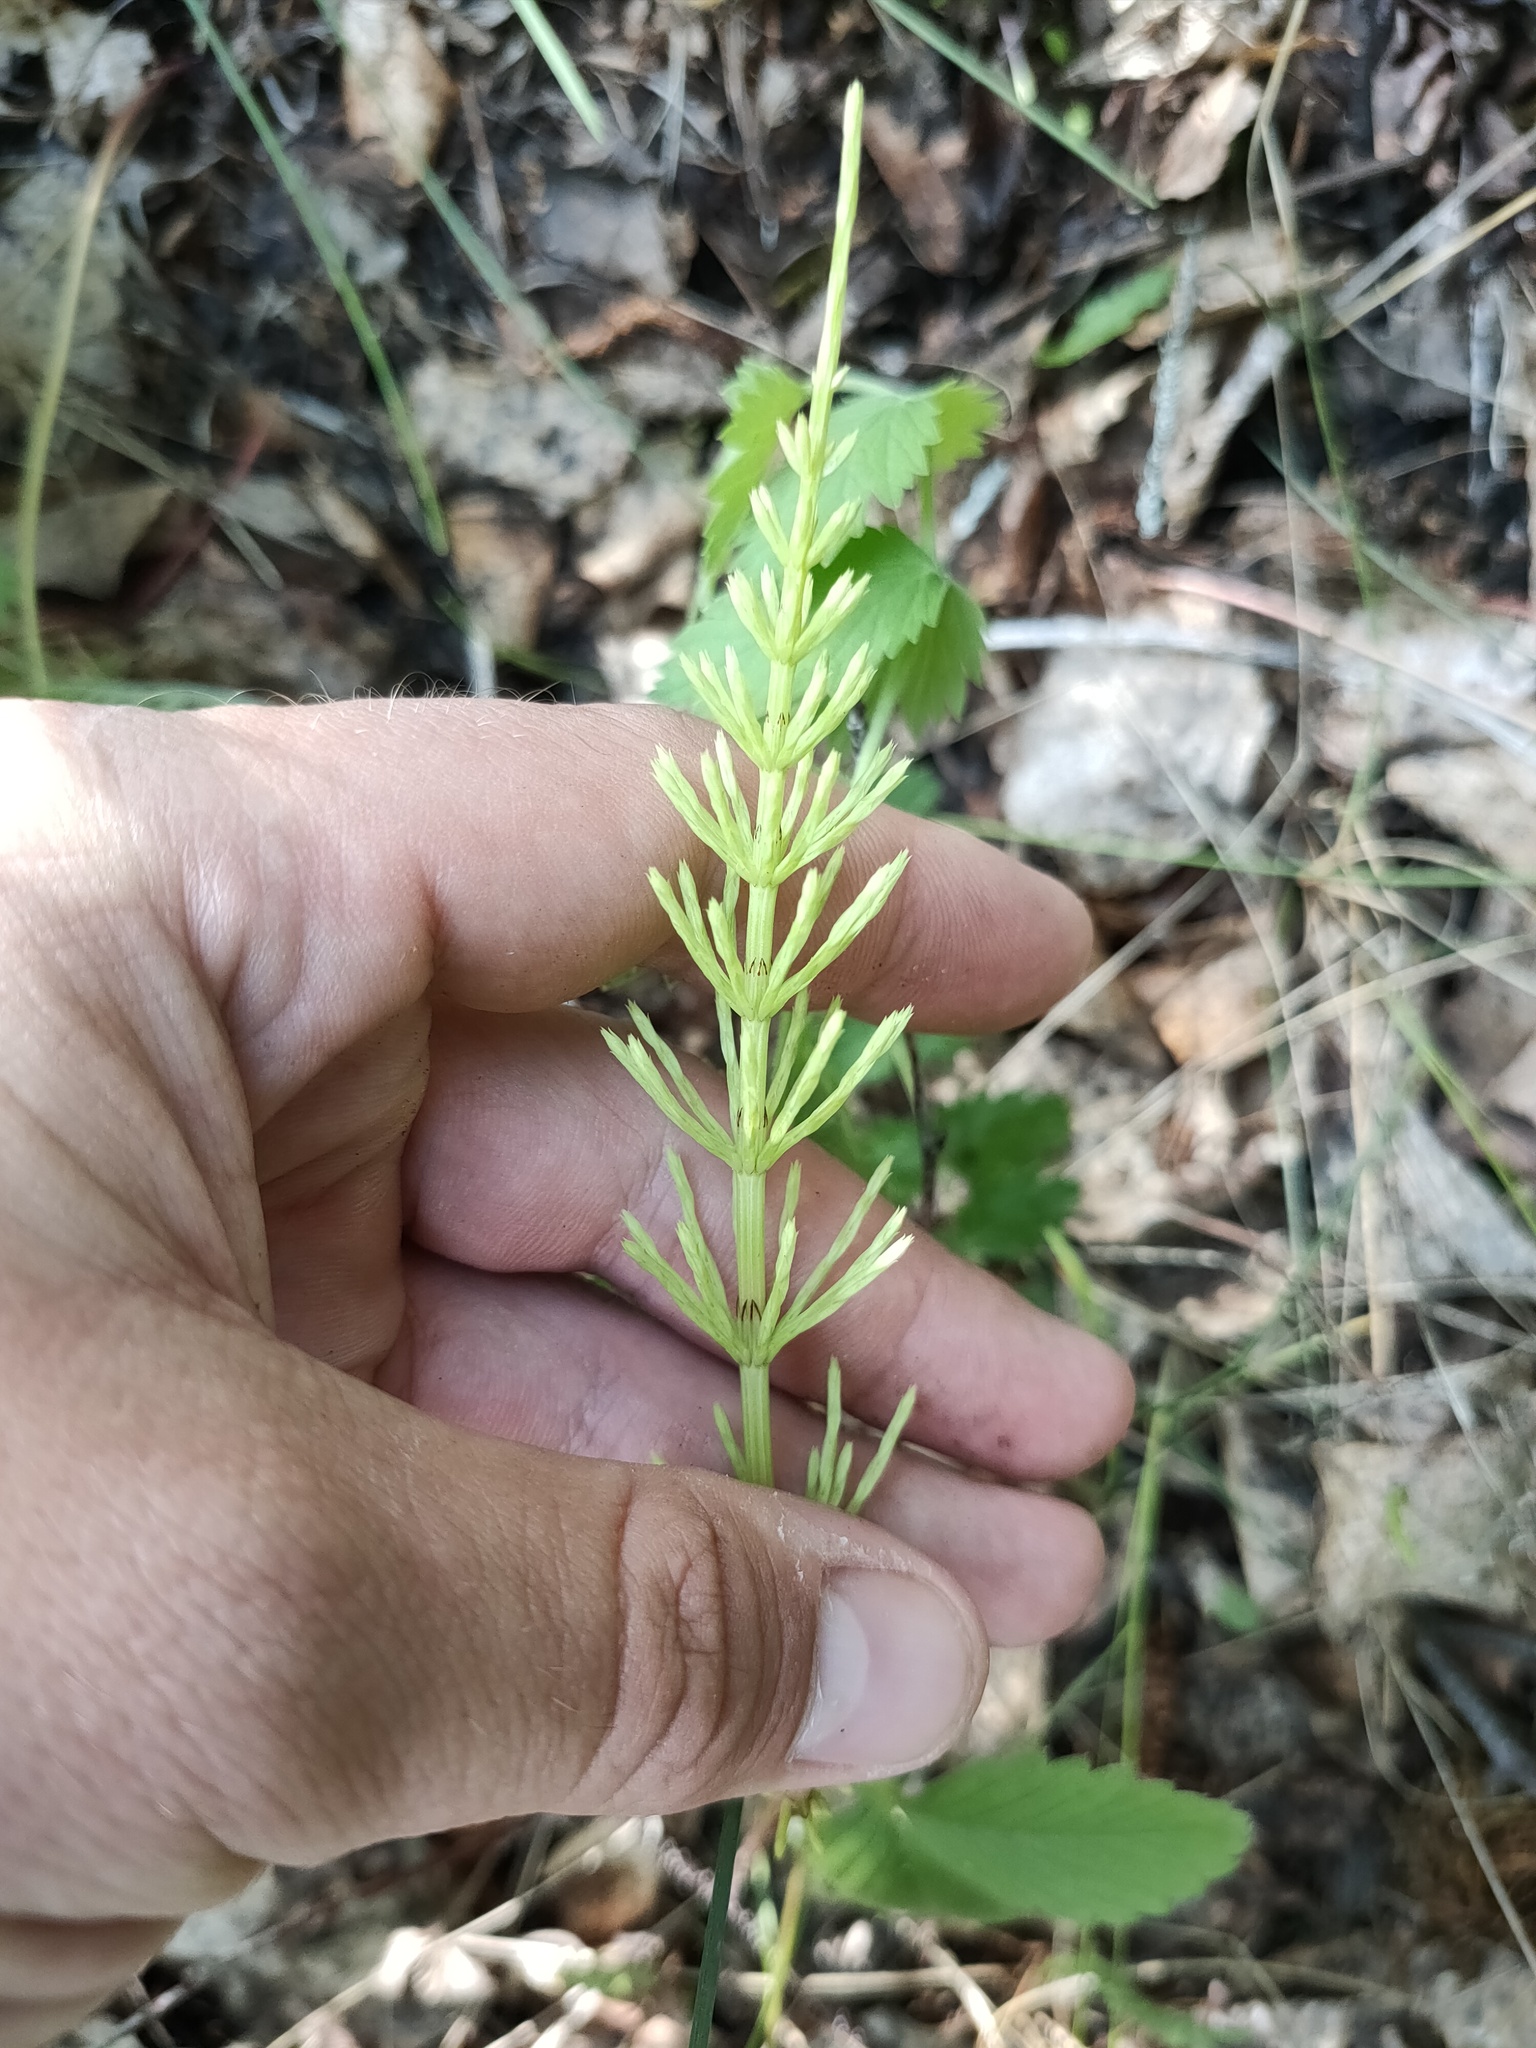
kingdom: Plantae
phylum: Tracheophyta
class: Polypodiopsida
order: Equisetales
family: Equisetaceae
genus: Equisetum
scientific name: Equisetum arvense
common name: Field horsetail
